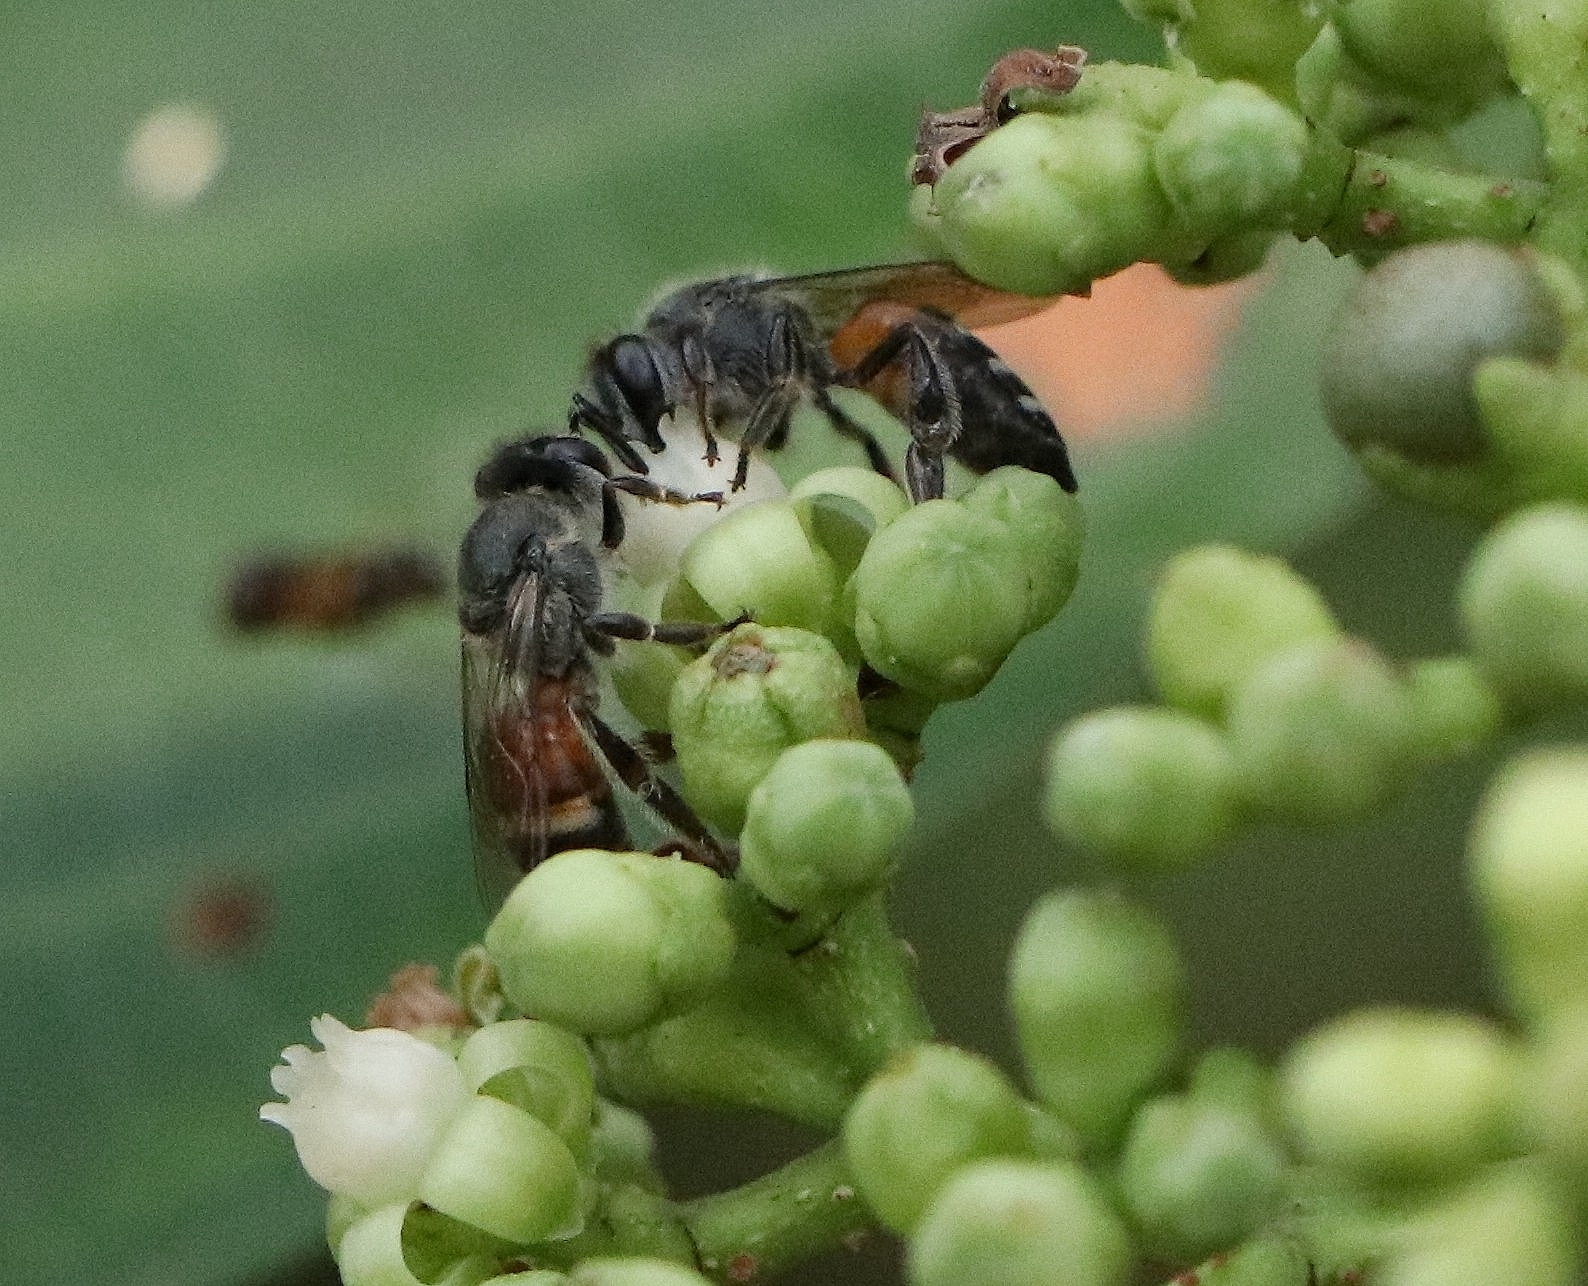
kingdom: Animalia
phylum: Arthropoda
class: Insecta
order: Hymenoptera
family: Apidae
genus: Apis
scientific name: Apis florea
